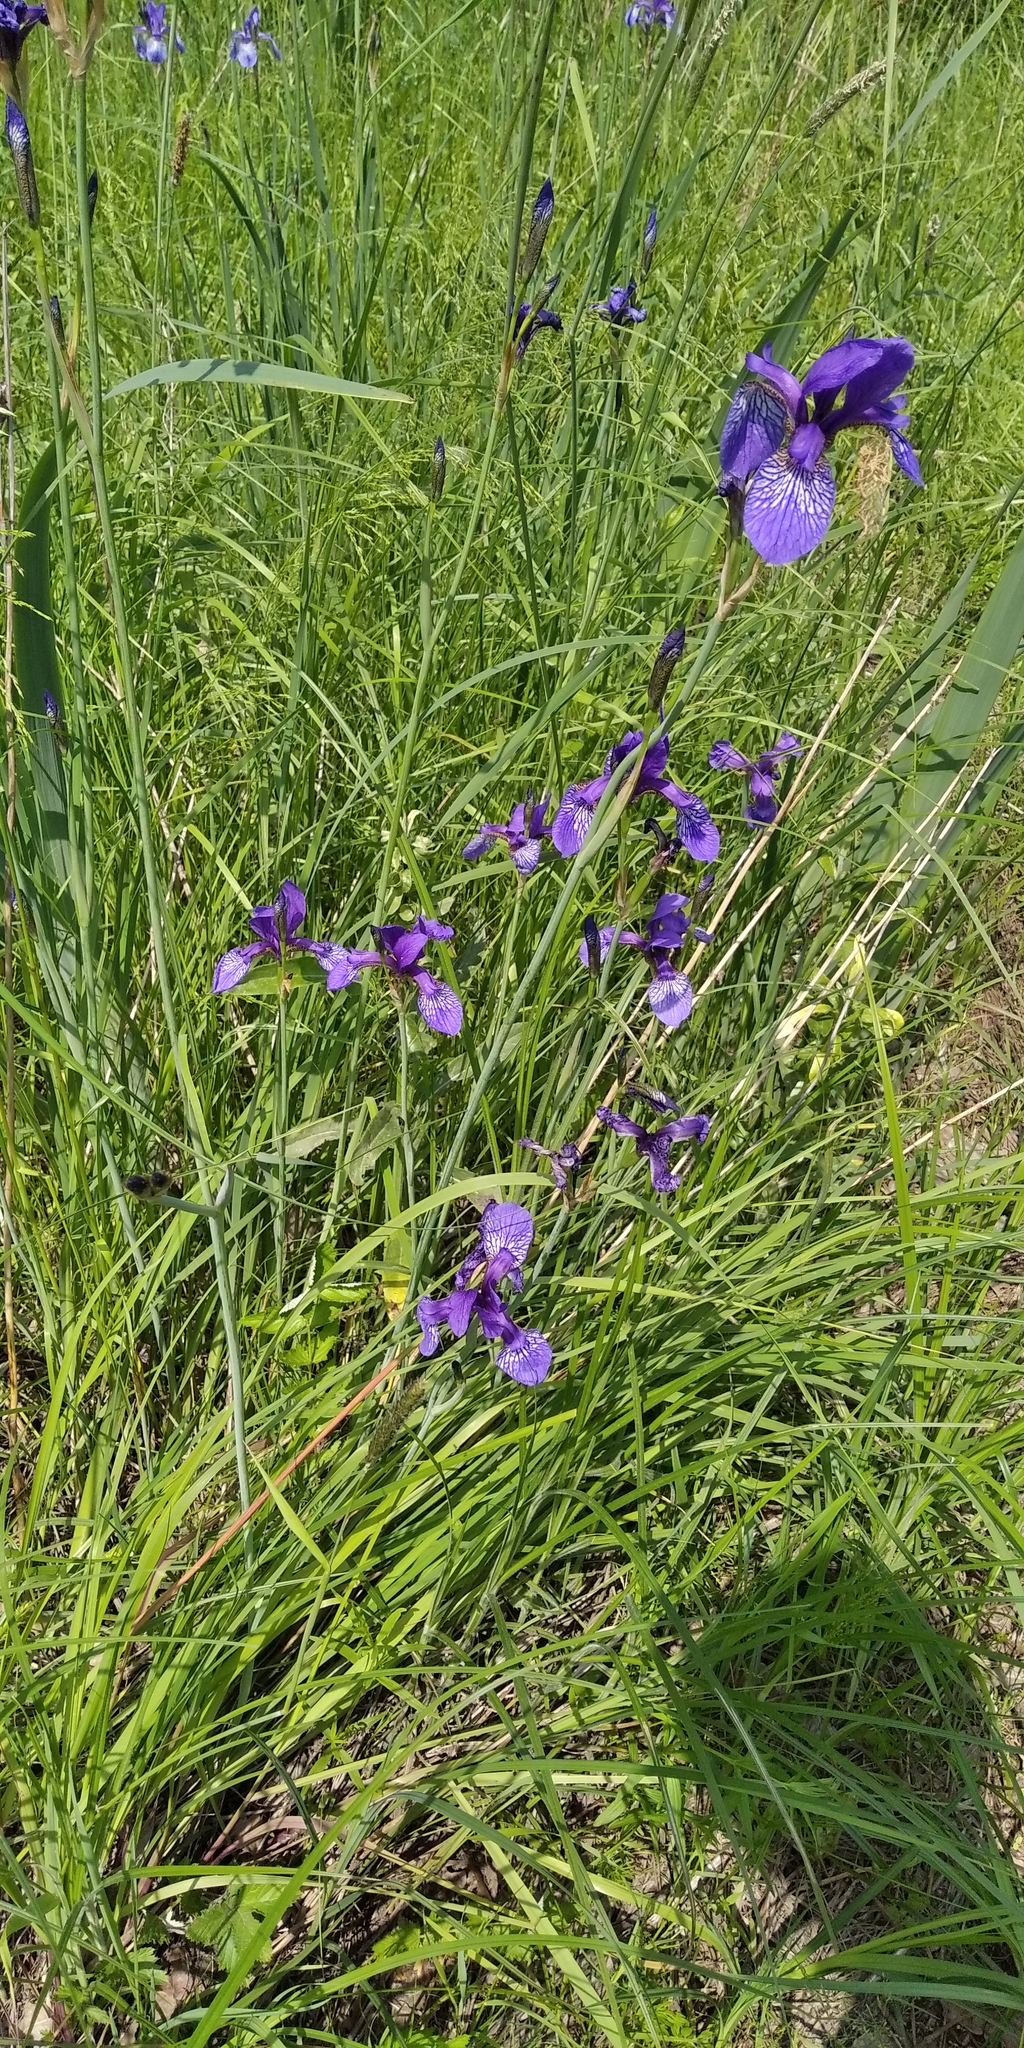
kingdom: Plantae
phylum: Tracheophyta
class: Liliopsida
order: Asparagales
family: Iridaceae
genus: Iris
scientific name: Iris sibirica
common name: Siberian iris
